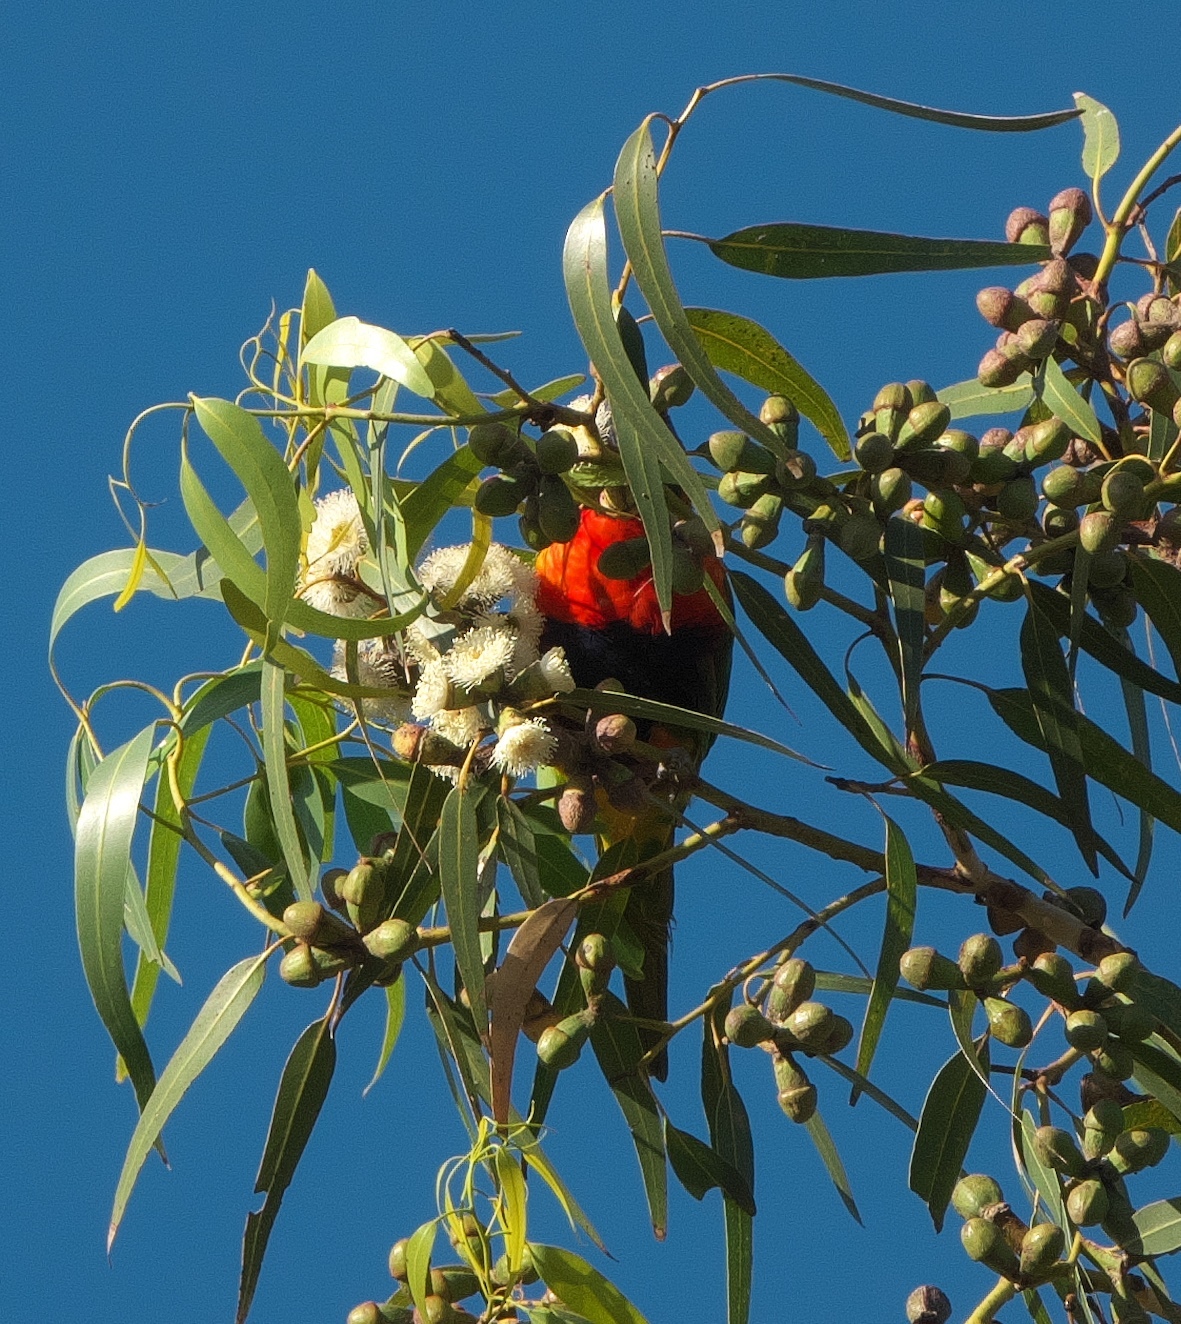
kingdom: Animalia
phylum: Chordata
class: Aves
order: Psittaciformes
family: Psittacidae
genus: Trichoglossus
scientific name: Trichoglossus haematodus
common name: Coconut lorikeet
